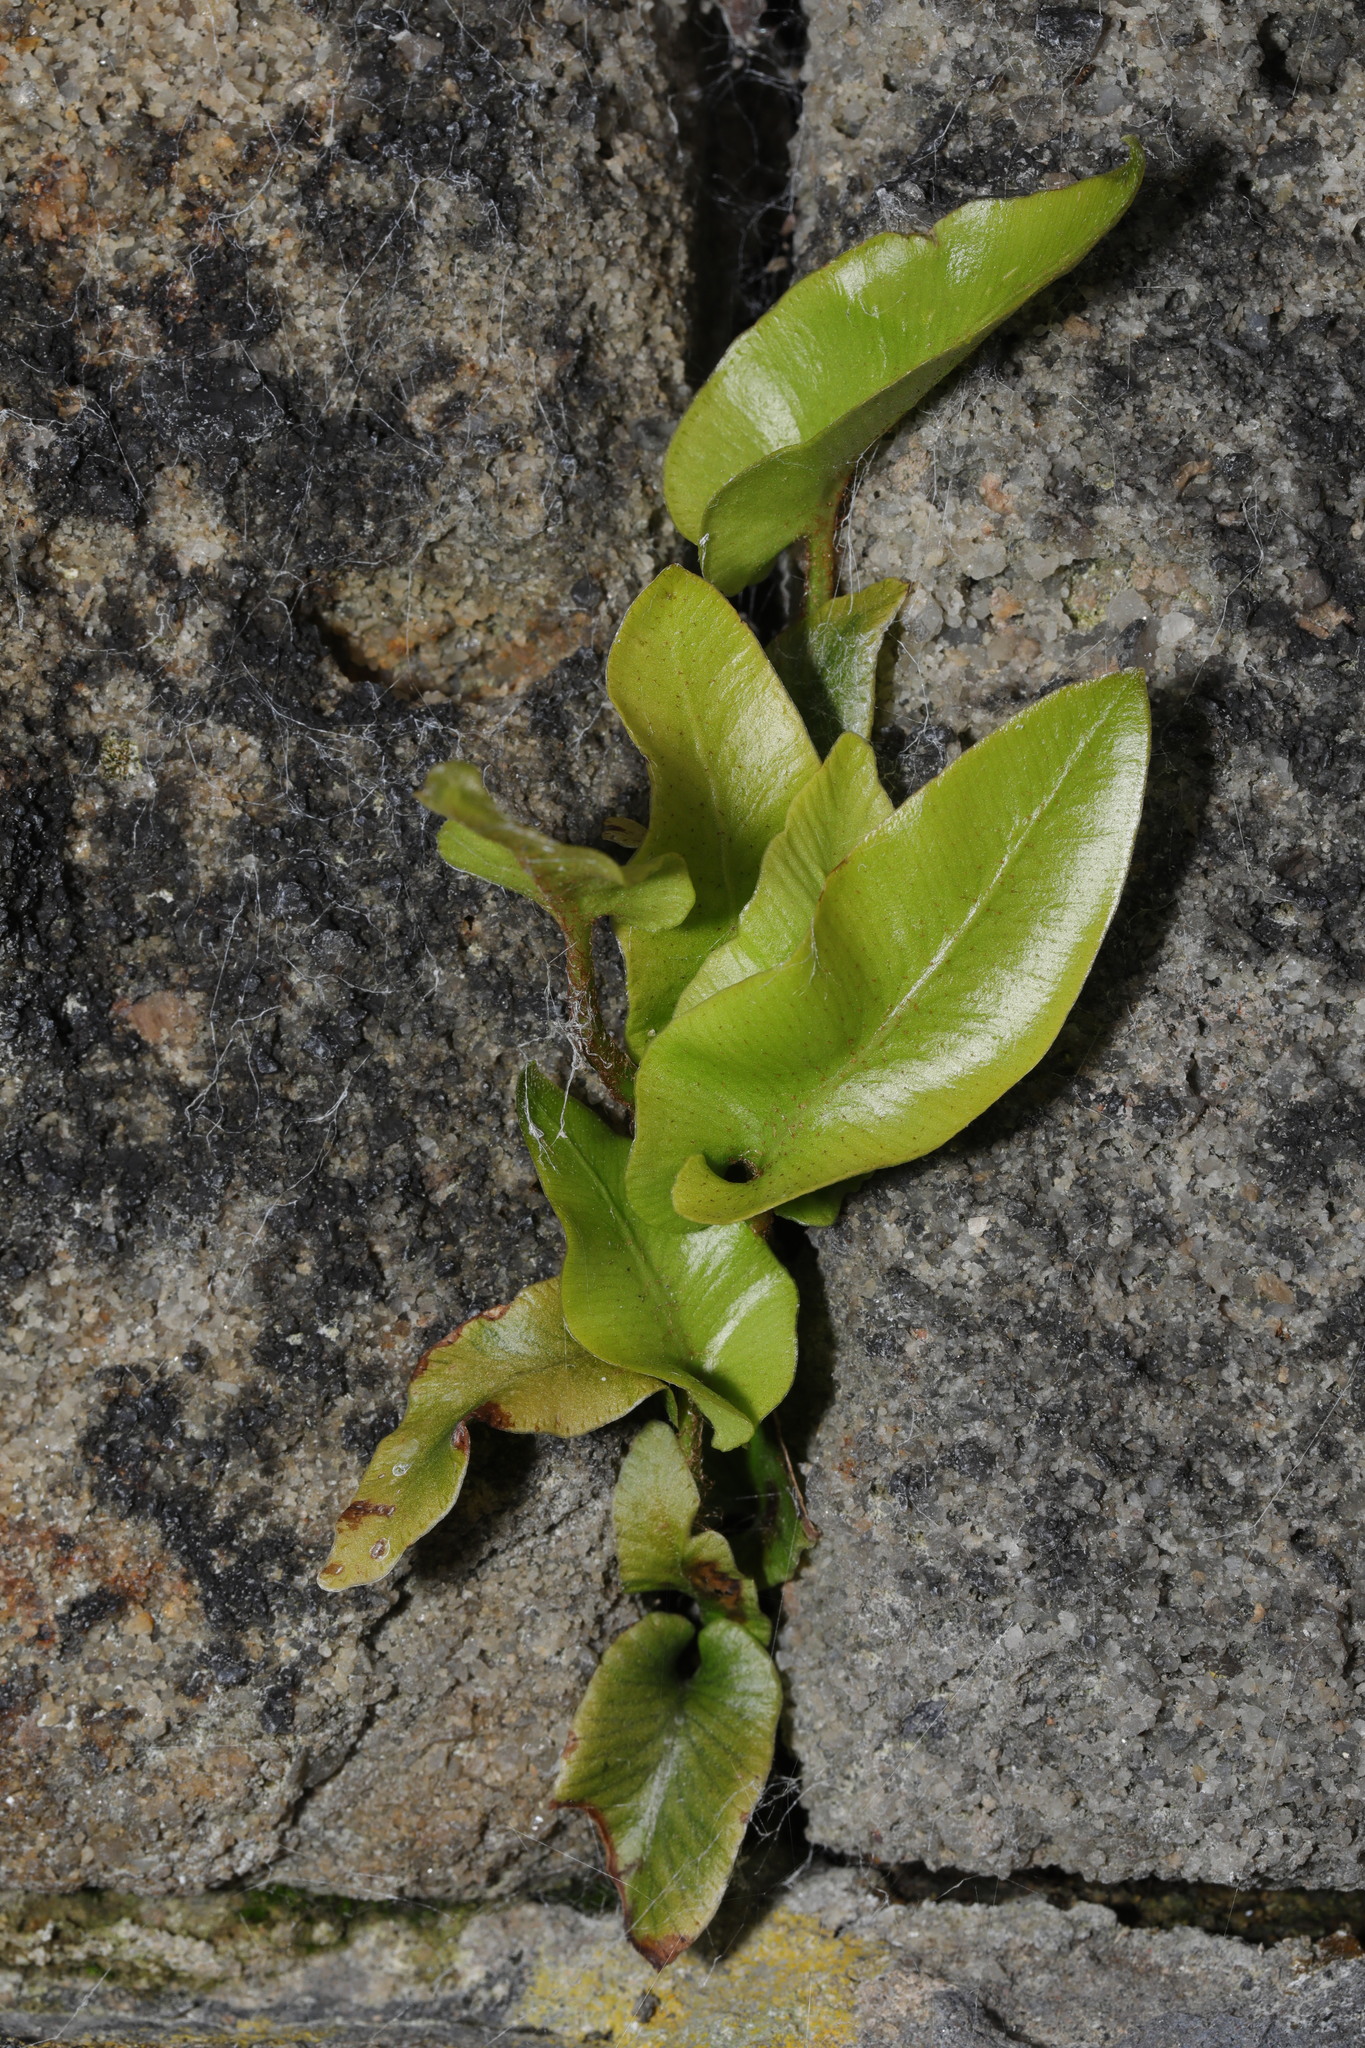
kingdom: Plantae
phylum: Tracheophyta
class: Polypodiopsida
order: Polypodiales
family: Aspleniaceae
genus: Asplenium
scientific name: Asplenium scolopendrium
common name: Hart's-tongue fern
